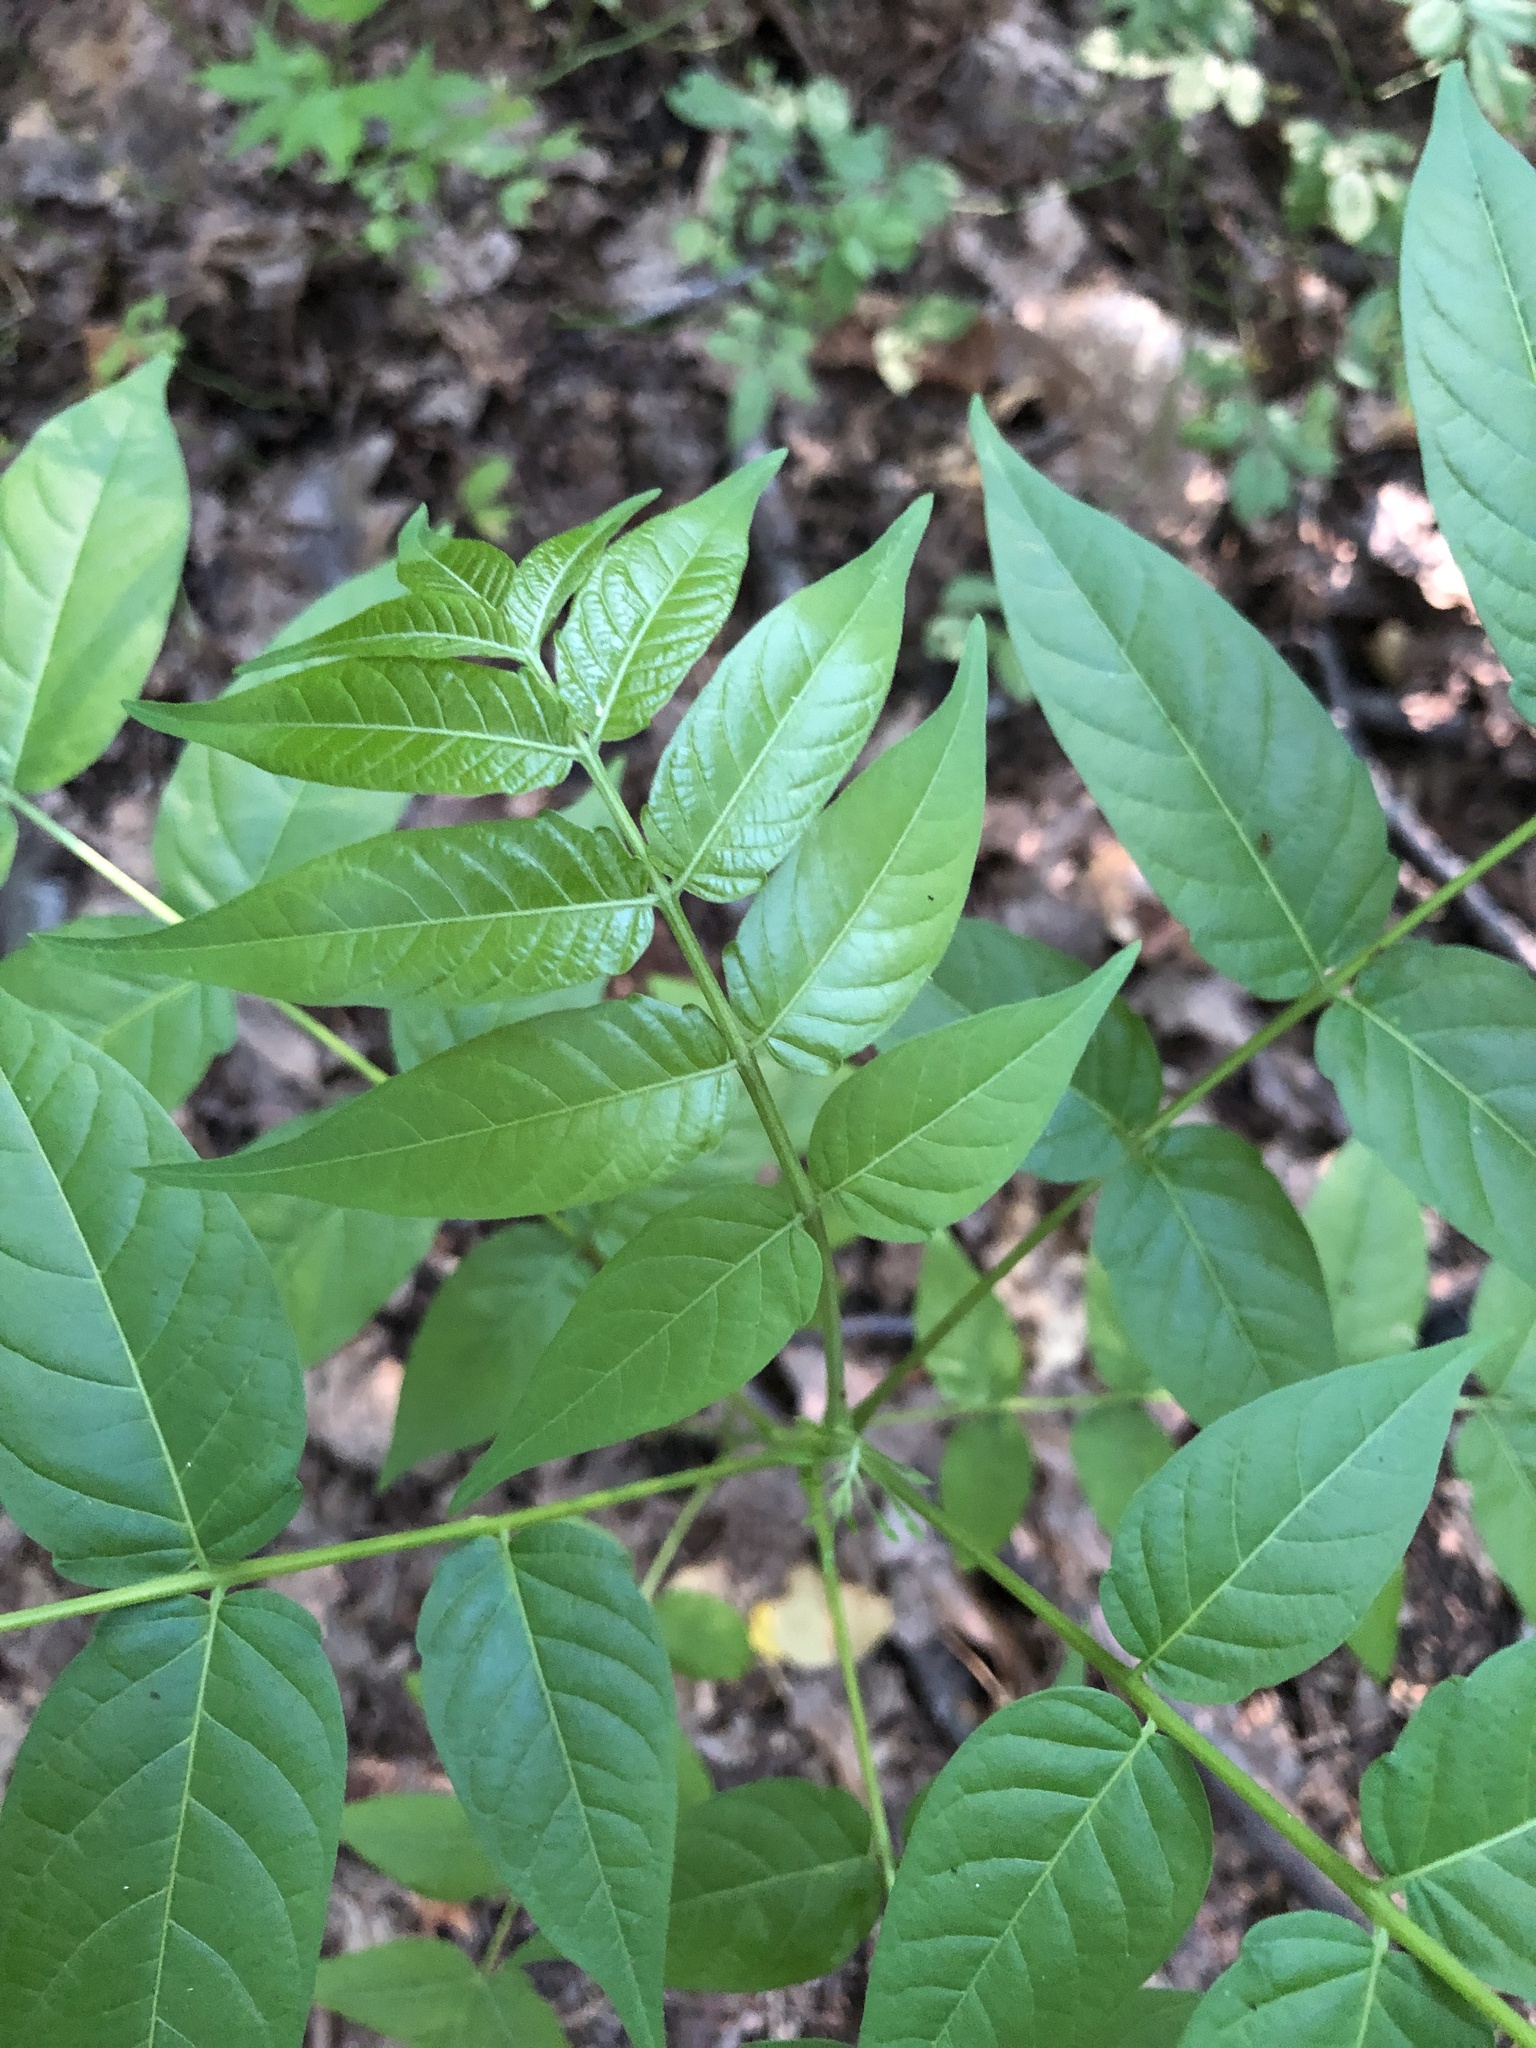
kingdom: Plantae
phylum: Tracheophyta
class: Magnoliopsida
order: Sapindales
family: Simaroubaceae
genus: Ailanthus
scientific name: Ailanthus altissima
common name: Tree-of-heaven
